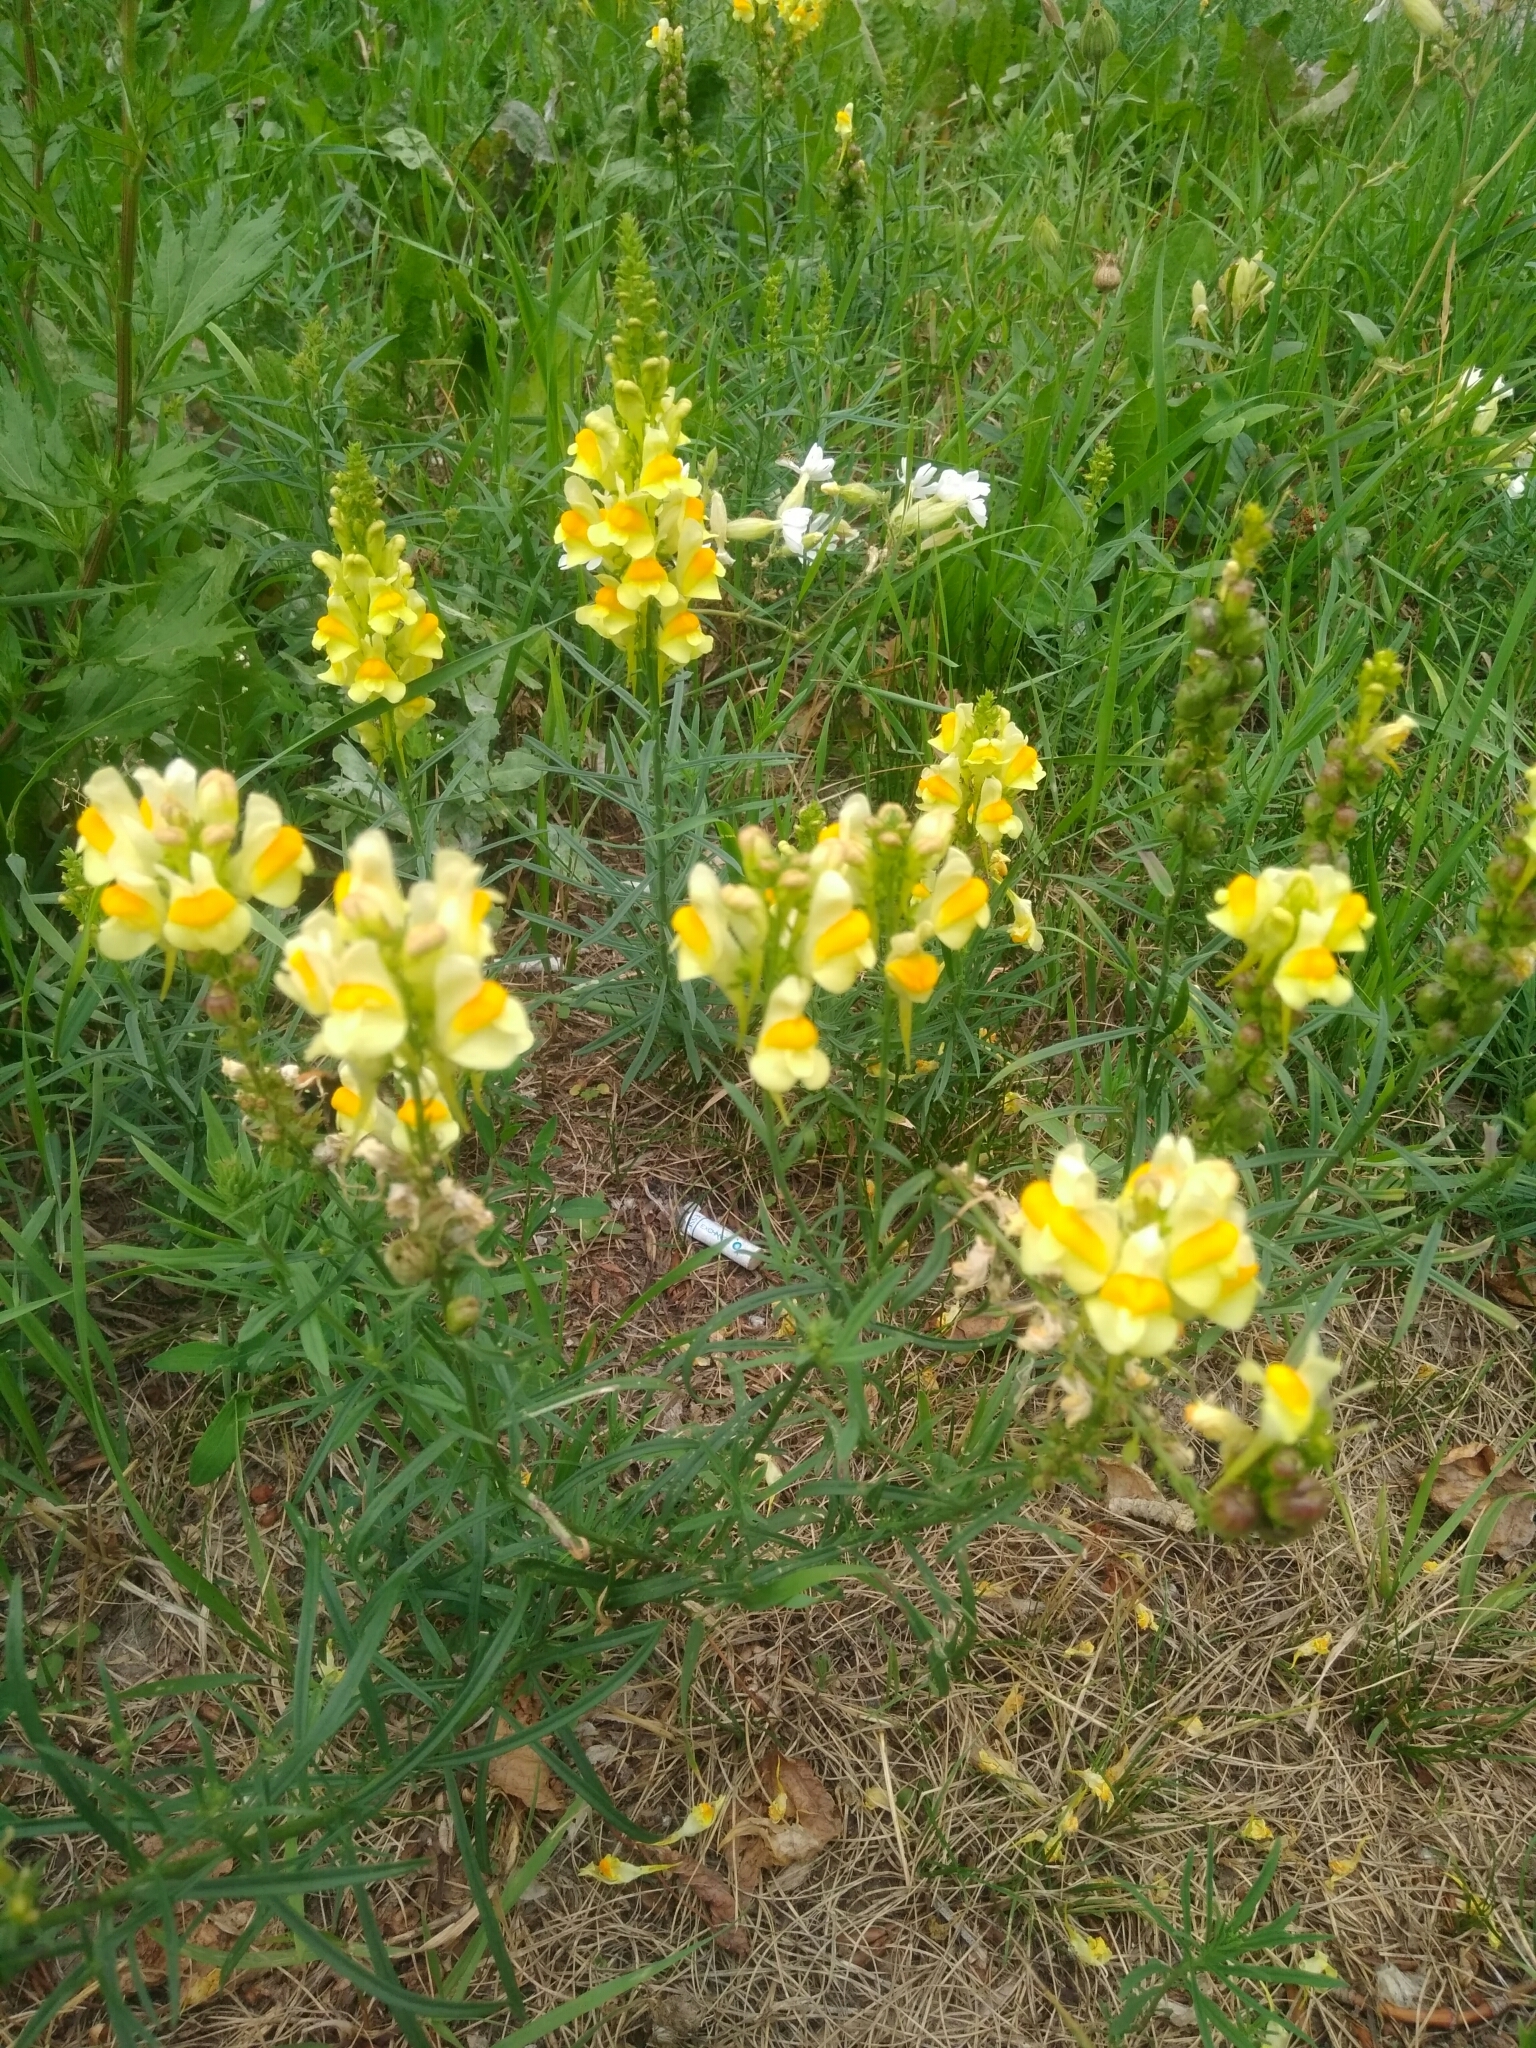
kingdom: Plantae
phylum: Tracheophyta
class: Magnoliopsida
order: Lamiales
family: Plantaginaceae
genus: Linaria
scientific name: Linaria vulgaris
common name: Butter and eggs
